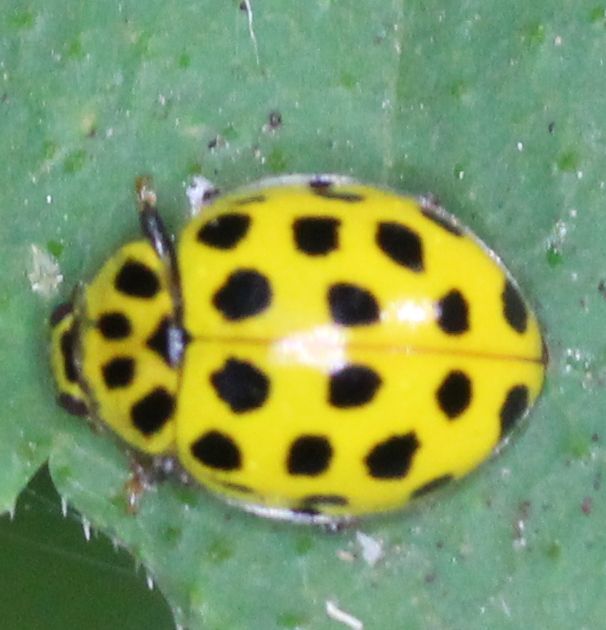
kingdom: Animalia
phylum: Arthropoda
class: Insecta
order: Coleoptera
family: Coccinellidae
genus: Psyllobora
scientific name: Psyllobora vigintiduopunctata
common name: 22-spot ladybird
